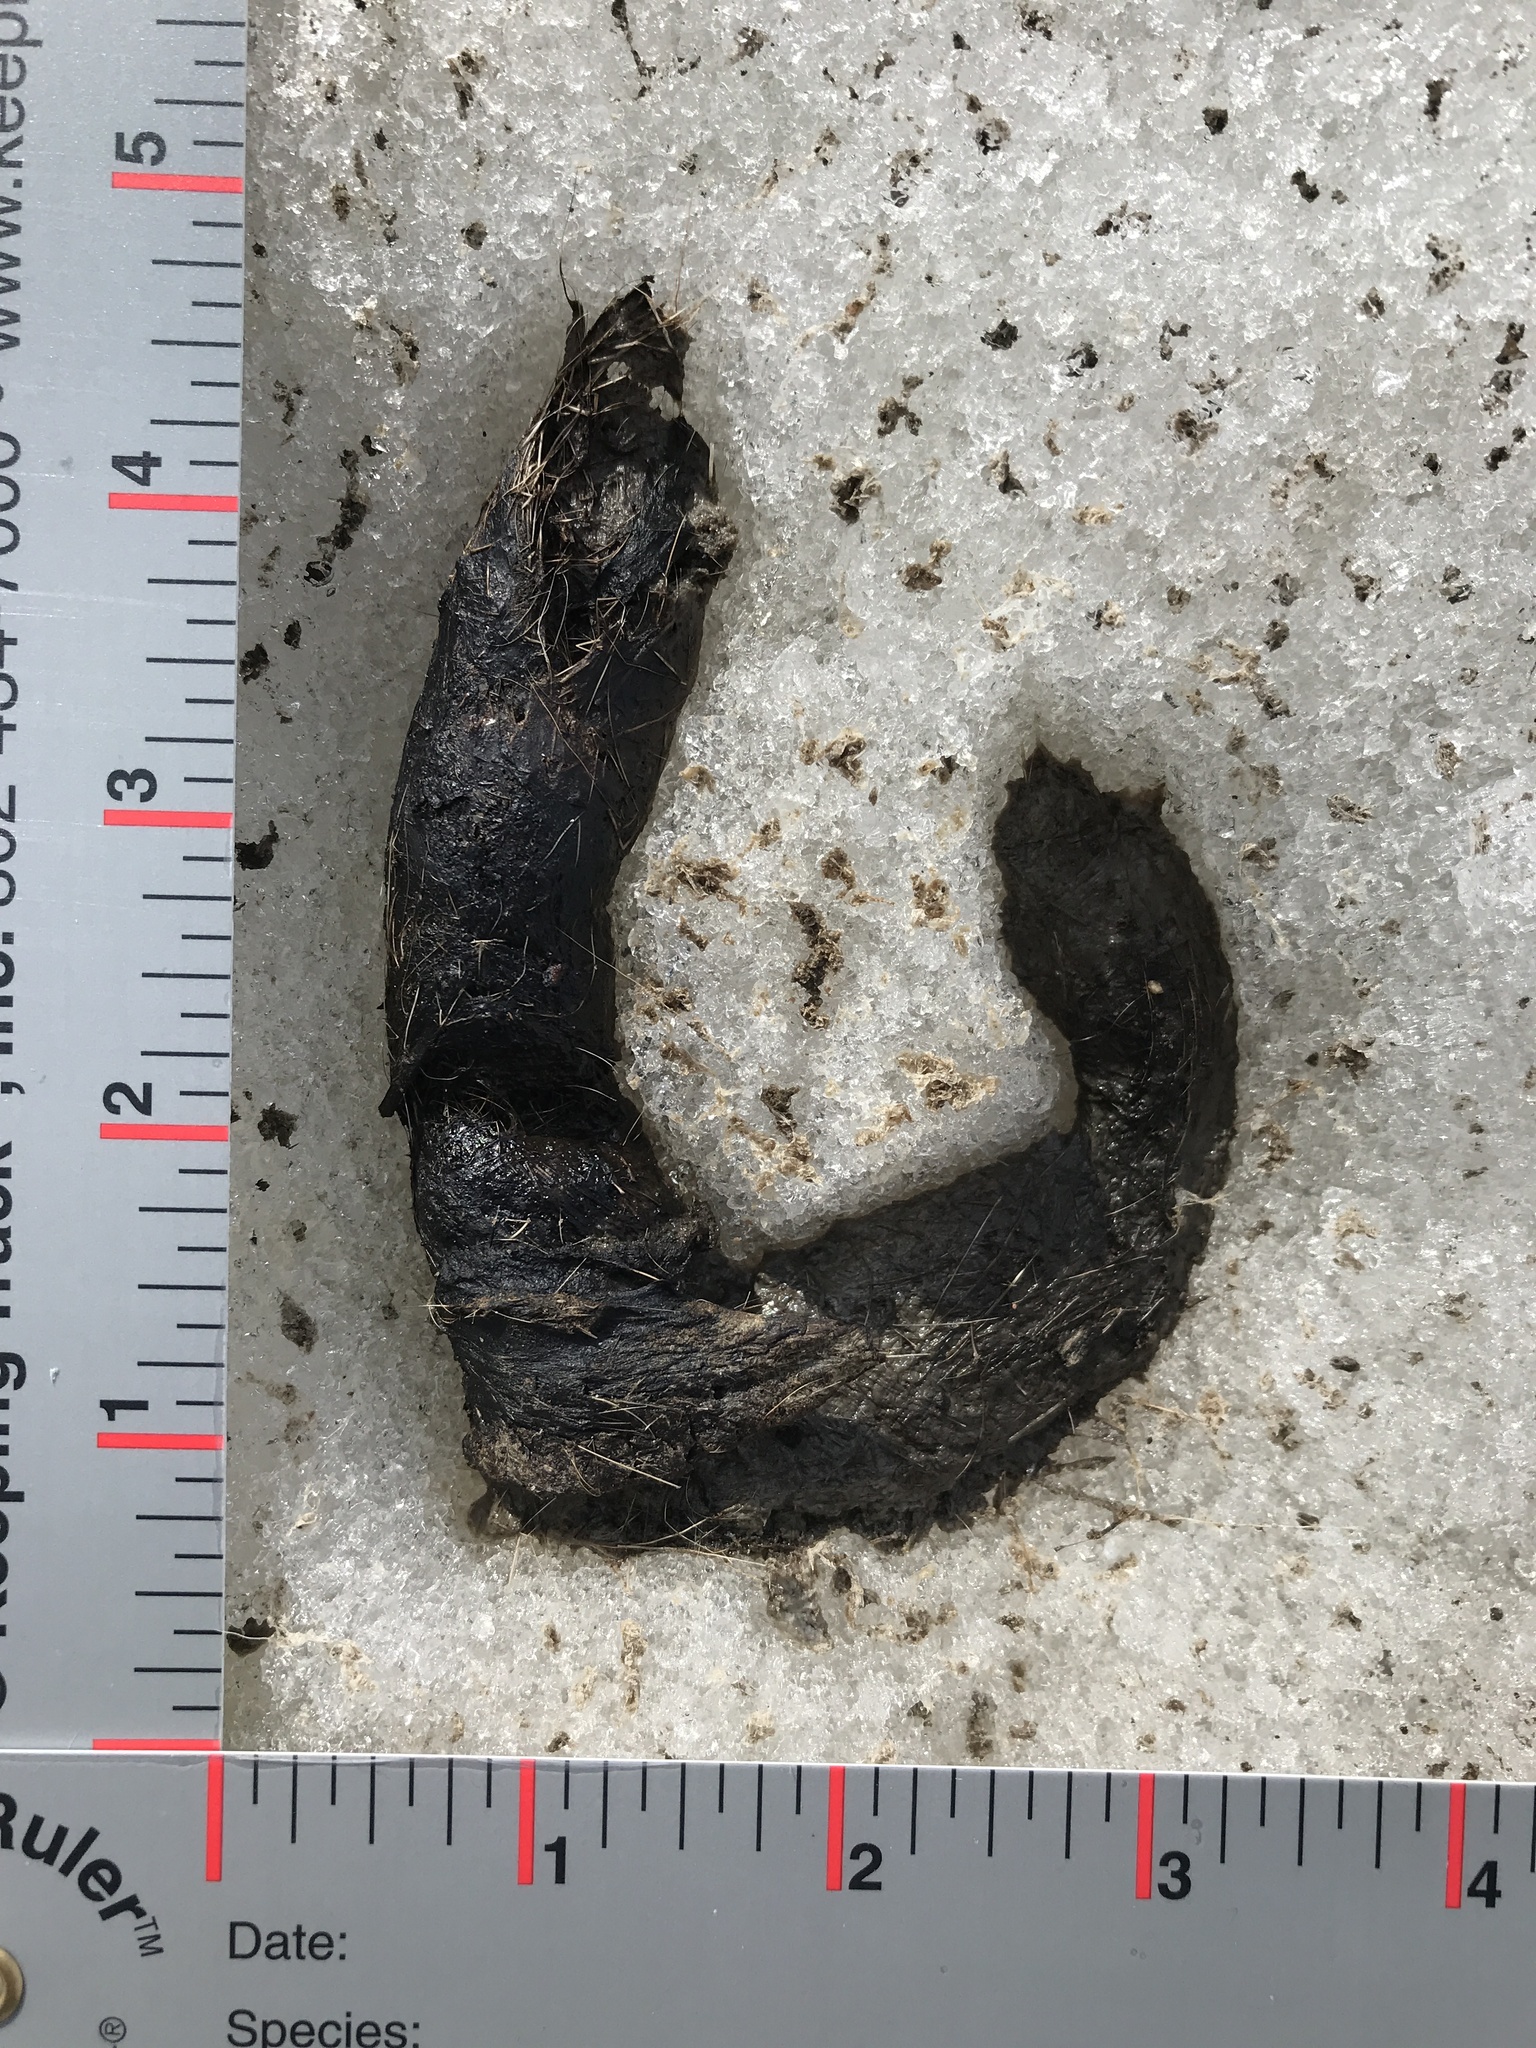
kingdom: Animalia
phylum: Chordata
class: Mammalia
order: Carnivora
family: Canidae
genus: Canis
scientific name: Canis latrans
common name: Coyote
